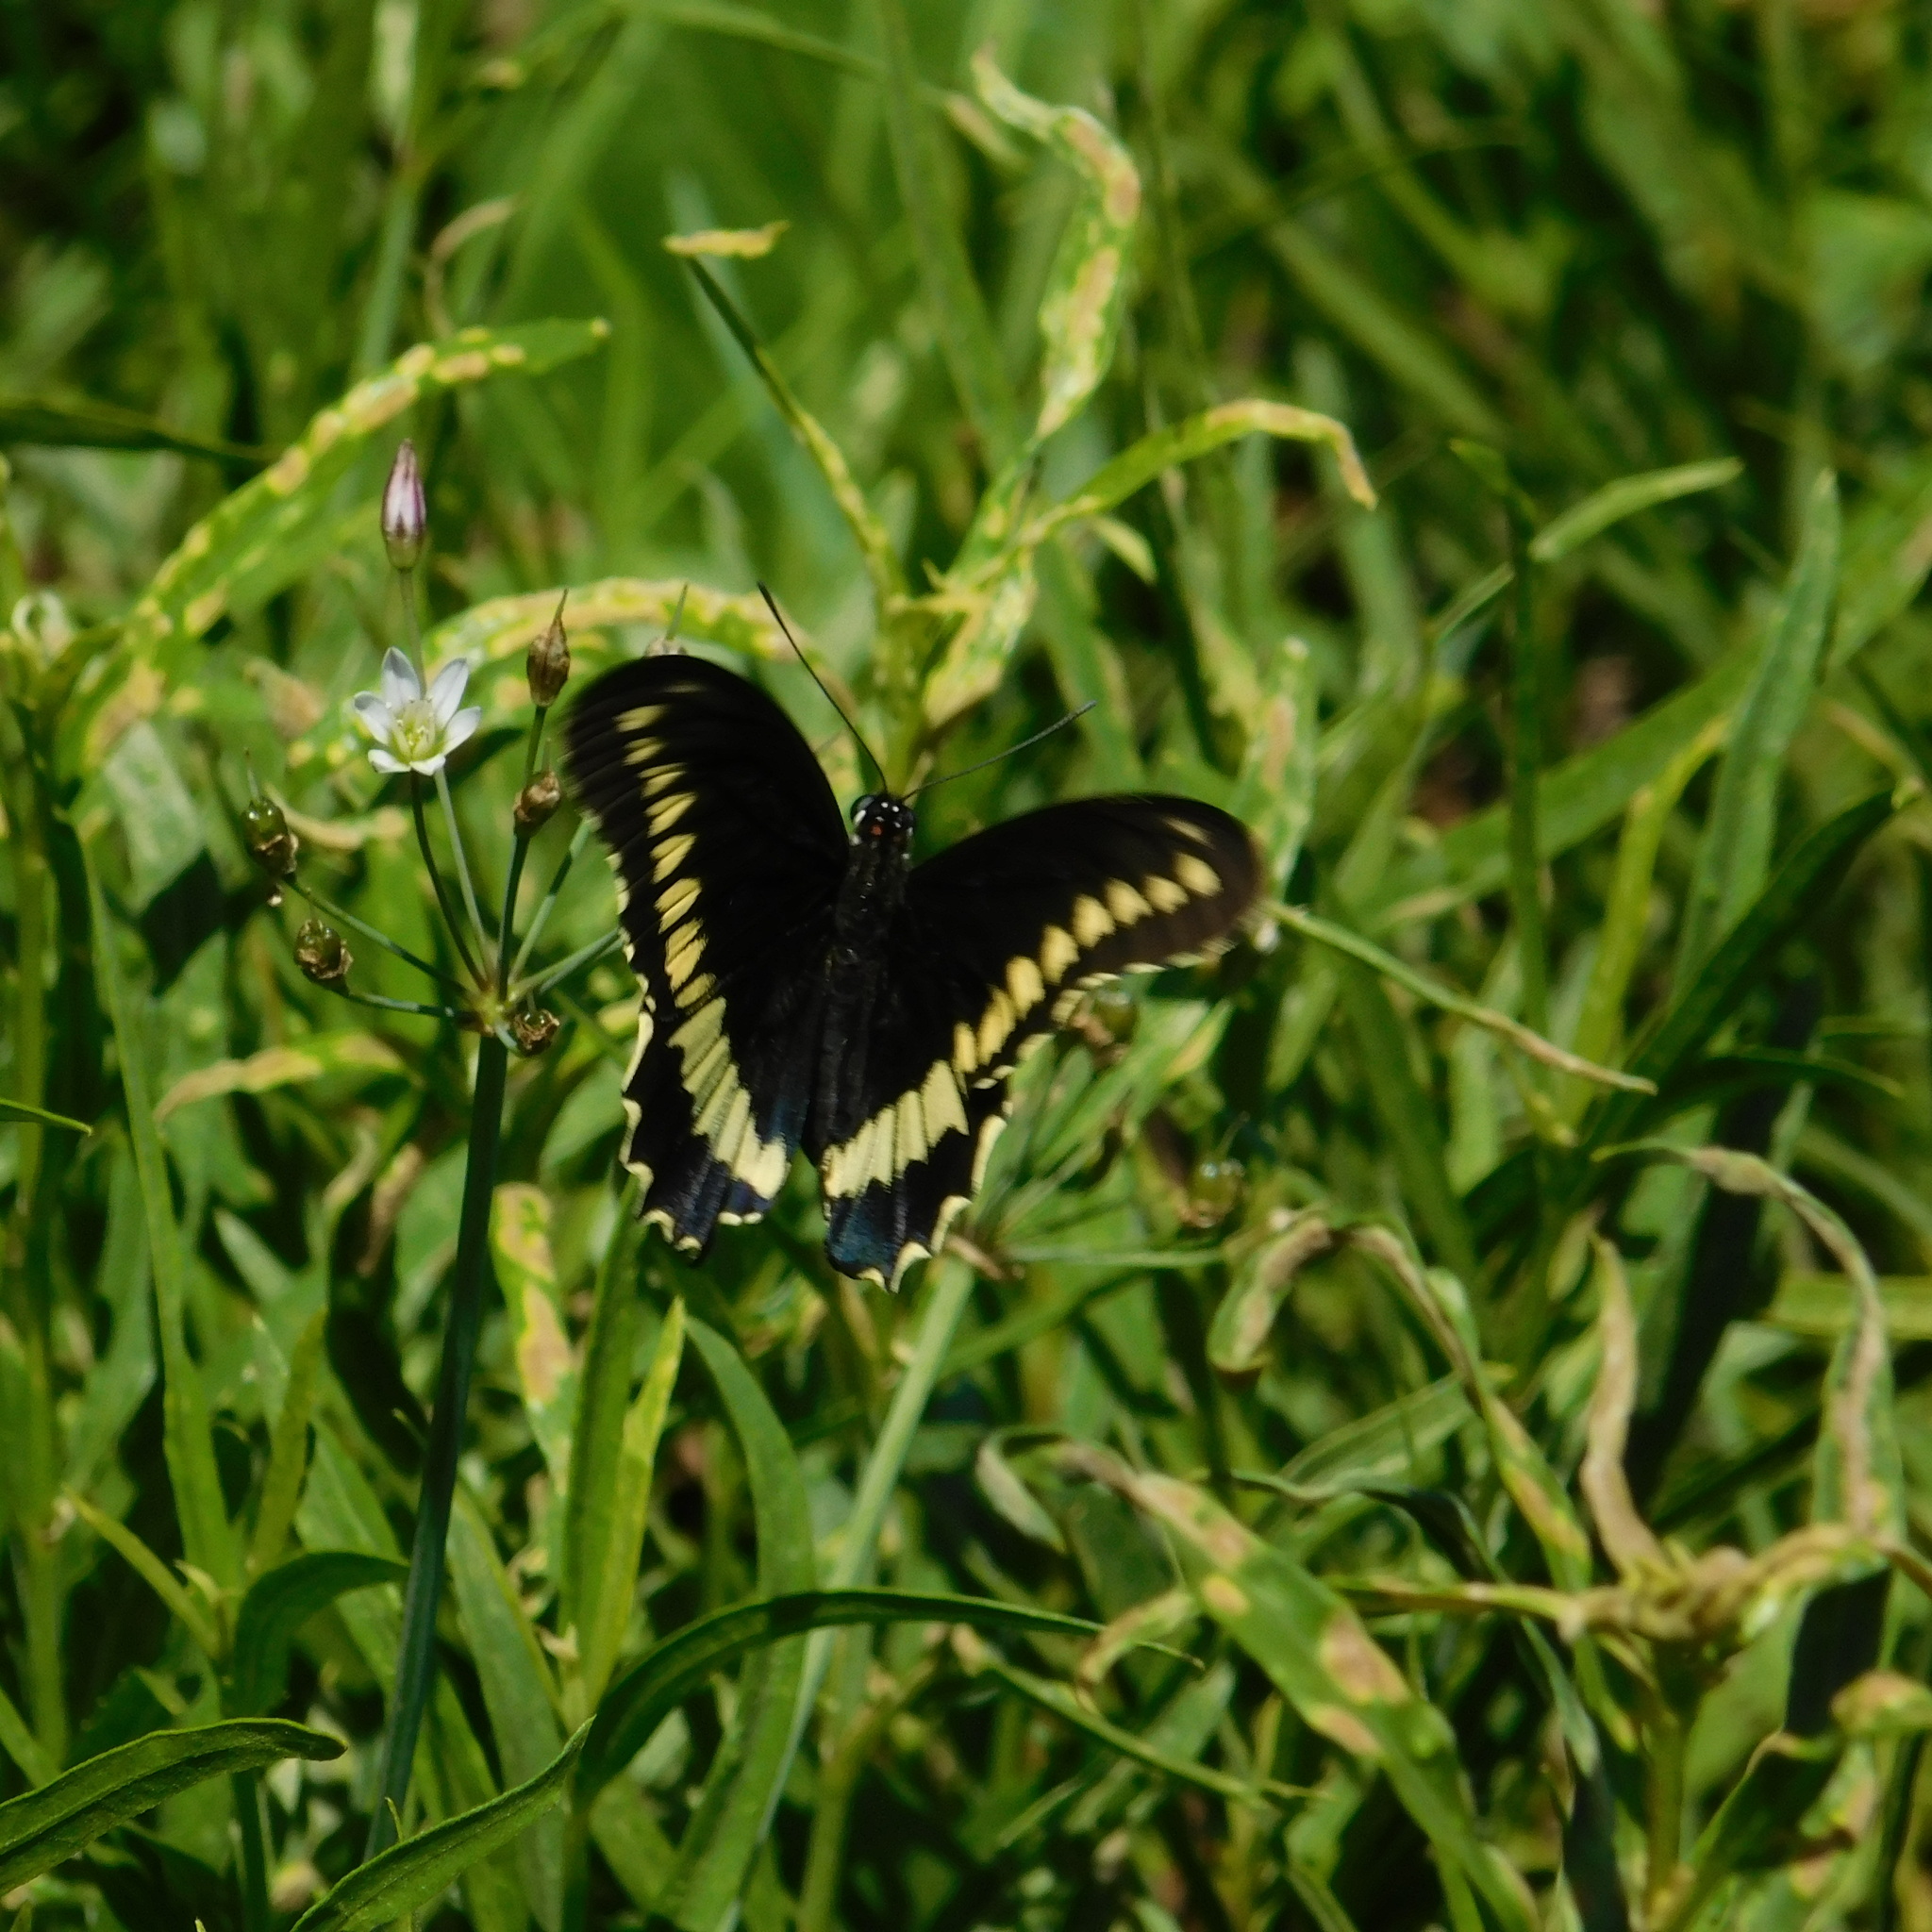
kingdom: Animalia
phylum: Arthropoda
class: Insecta
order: Lepidoptera
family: Papilionidae
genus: Battus
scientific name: Battus polydamas
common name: Polydamas swallowtail
